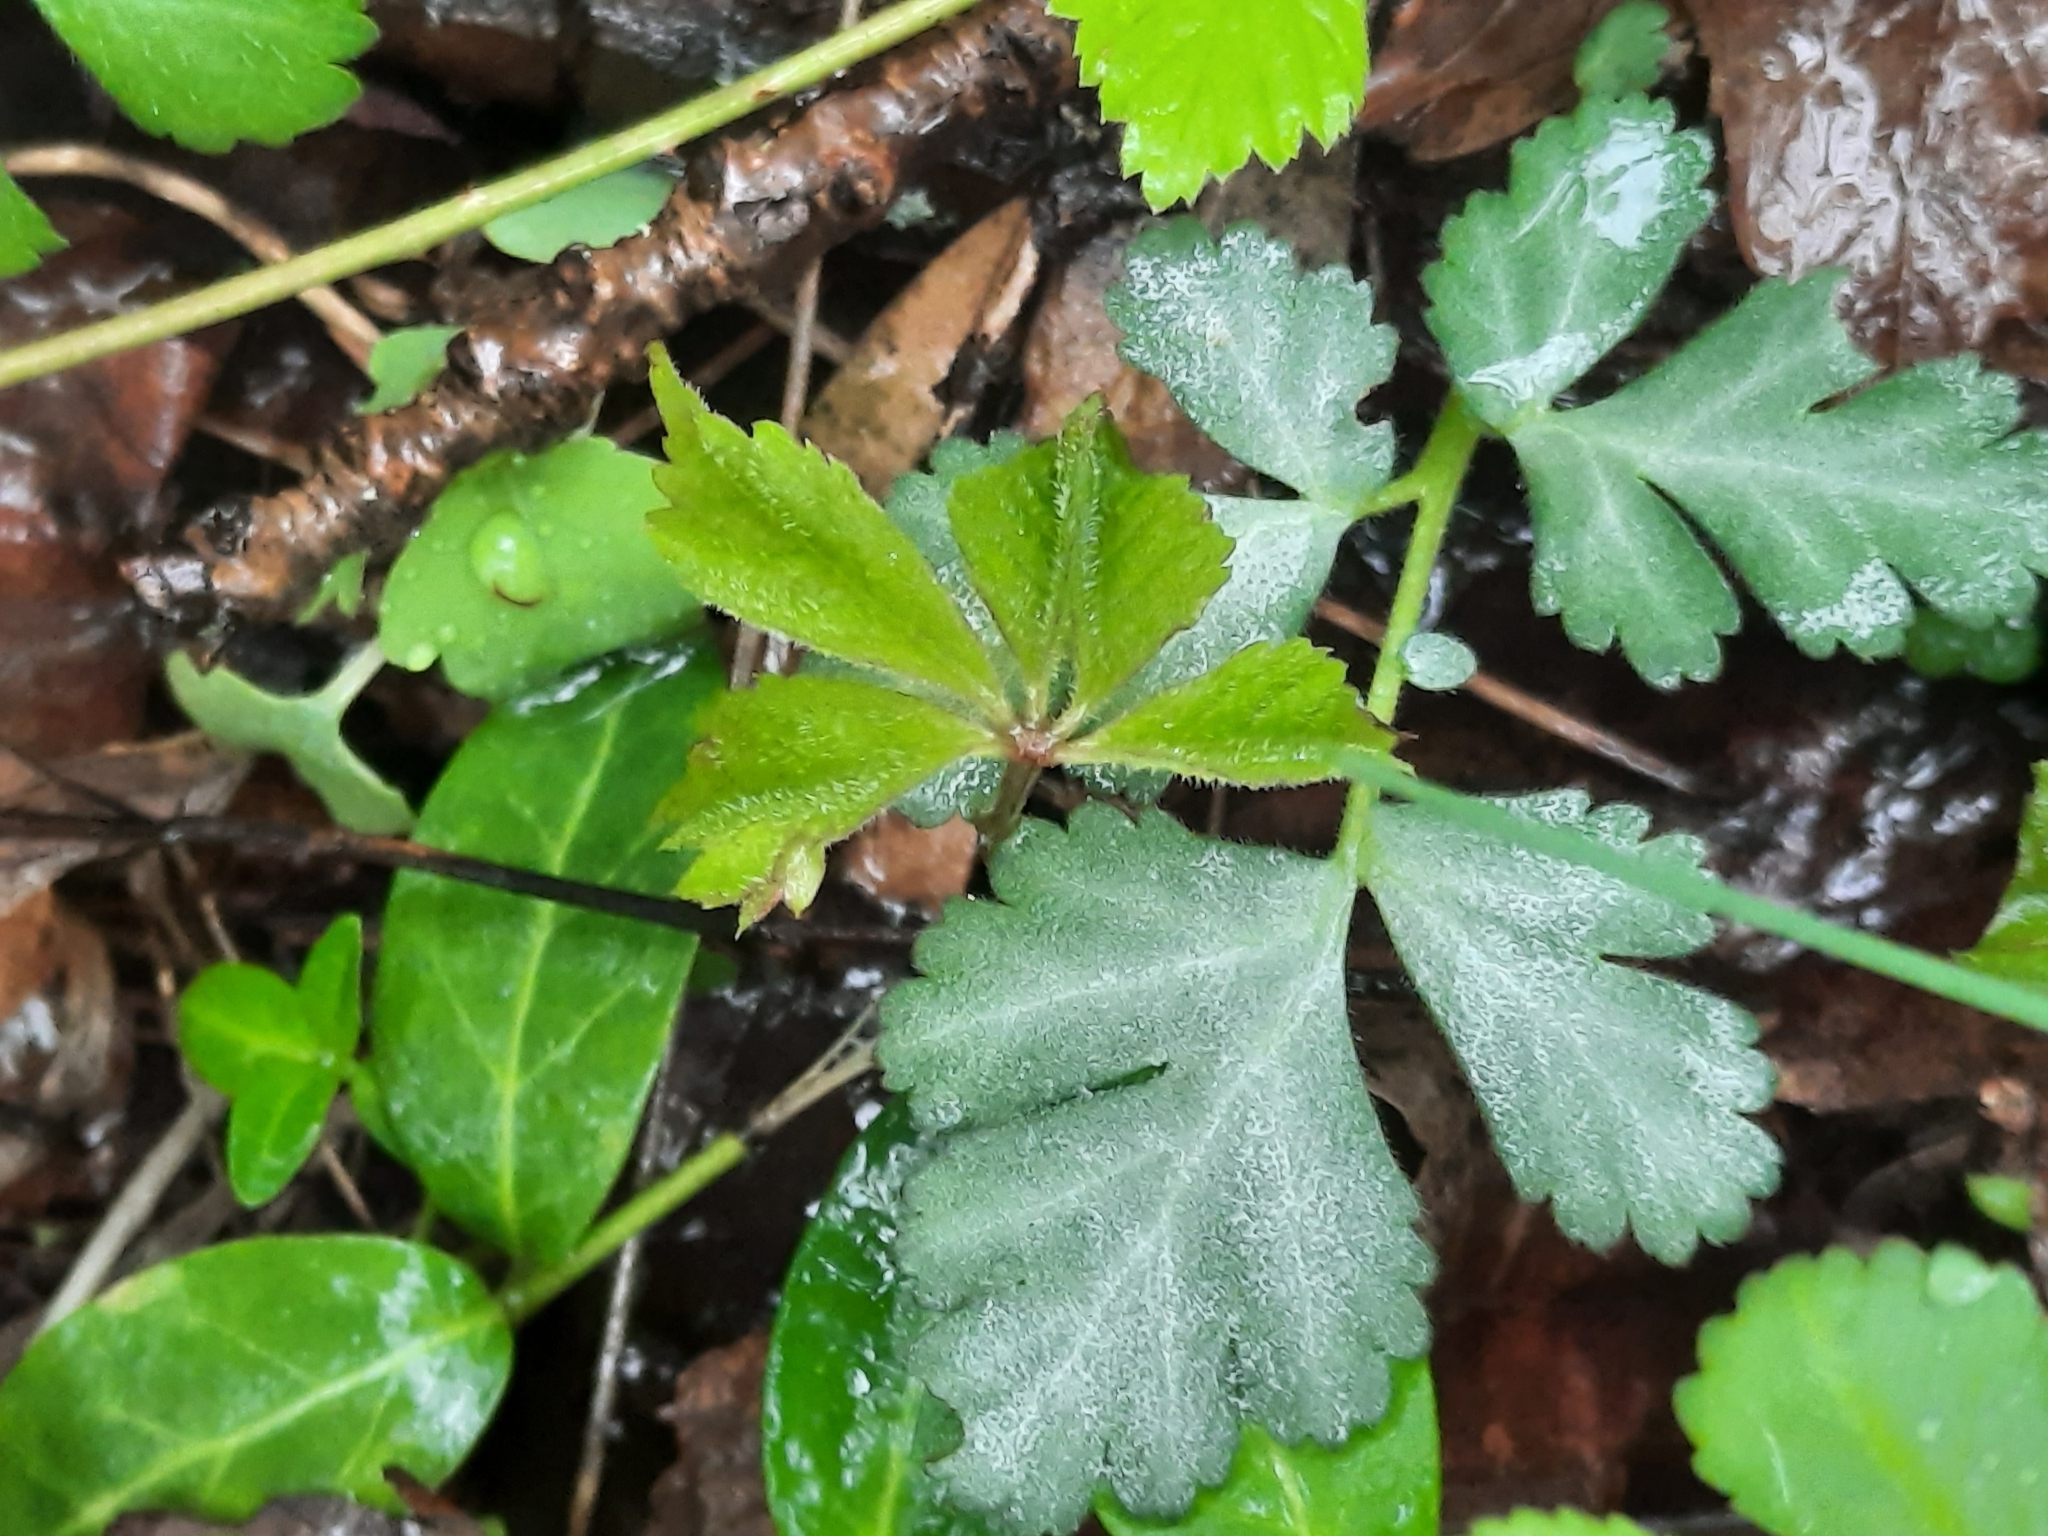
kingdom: Plantae
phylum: Tracheophyta
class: Magnoliopsida
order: Rosales
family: Rosaceae
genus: Geum
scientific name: Geum canadense
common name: White avens
